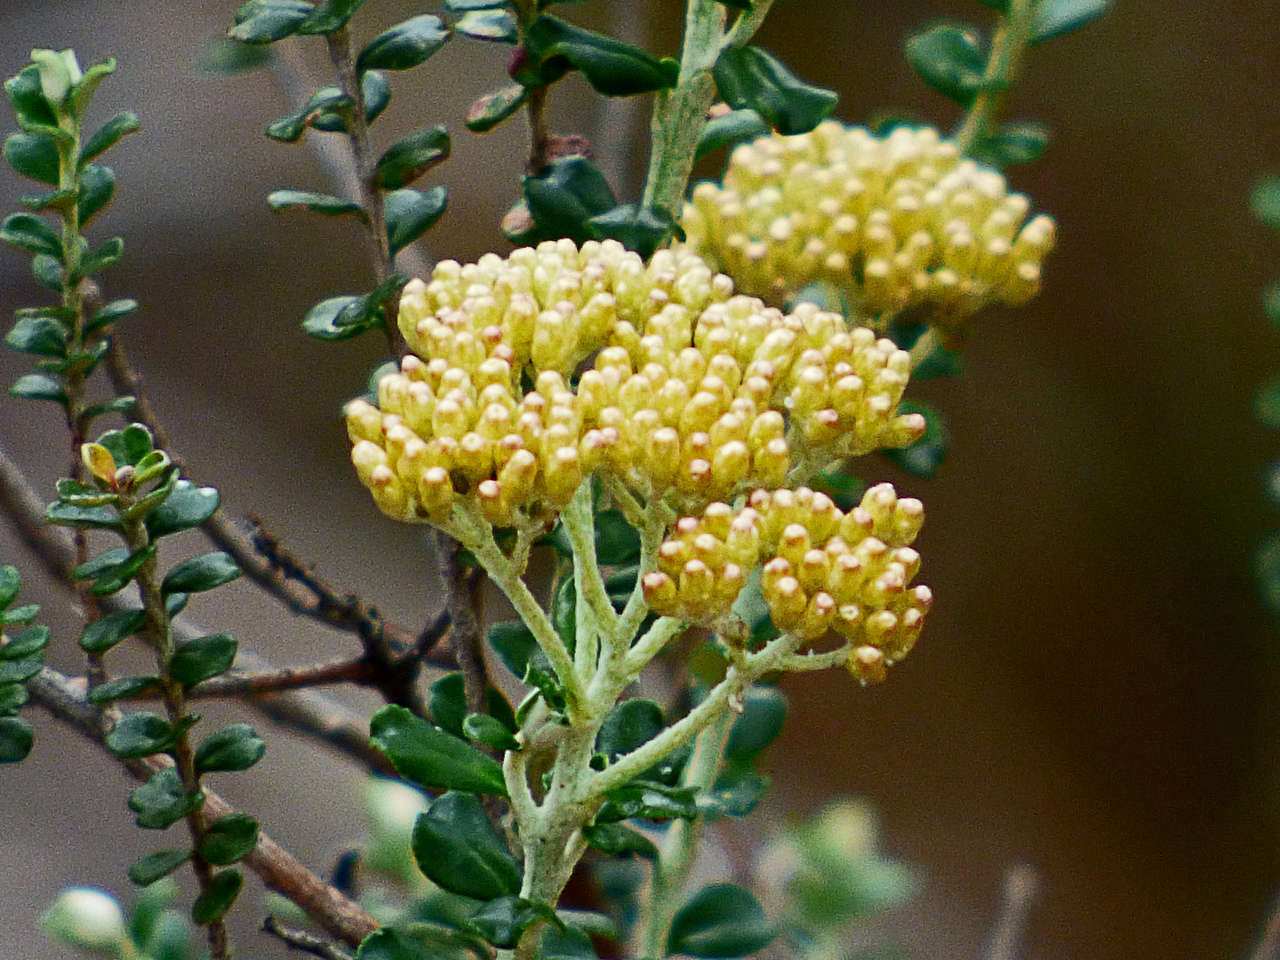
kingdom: Plantae
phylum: Tracheophyta
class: Magnoliopsida
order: Asterales
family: Asteraceae
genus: Ozothamnus
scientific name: Ozothamnus obcordatus
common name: Grey everlasting
